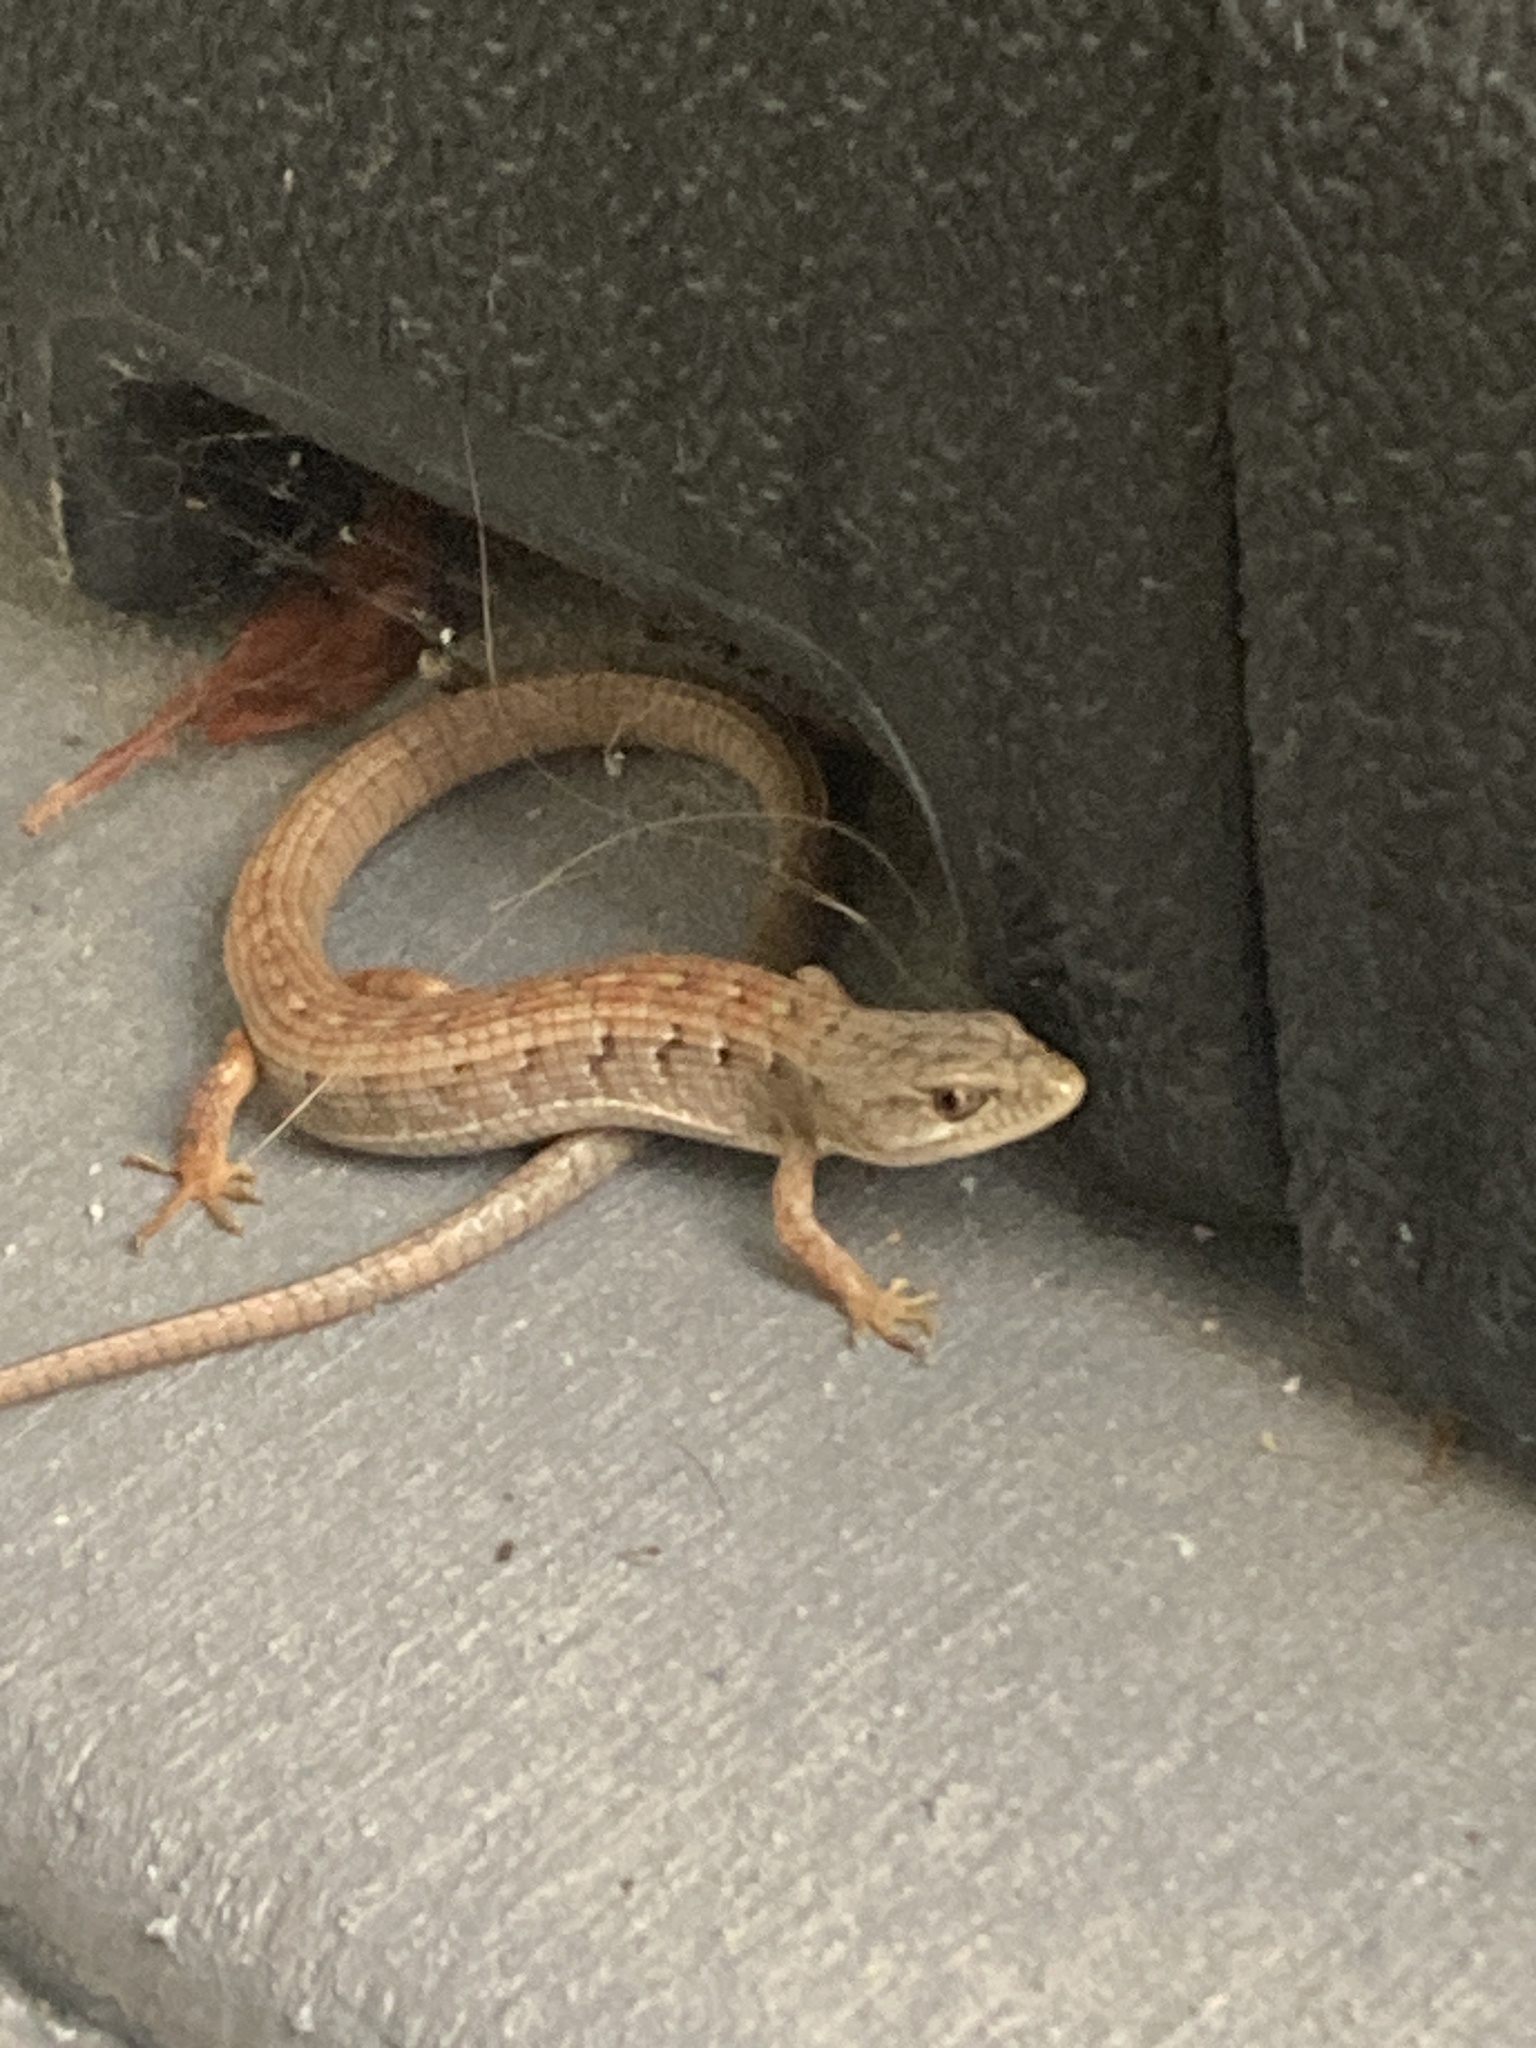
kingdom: Animalia
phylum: Chordata
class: Squamata
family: Anguidae
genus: Elgaria
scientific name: Elgaria multicarinata
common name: Southern alligator lizard
